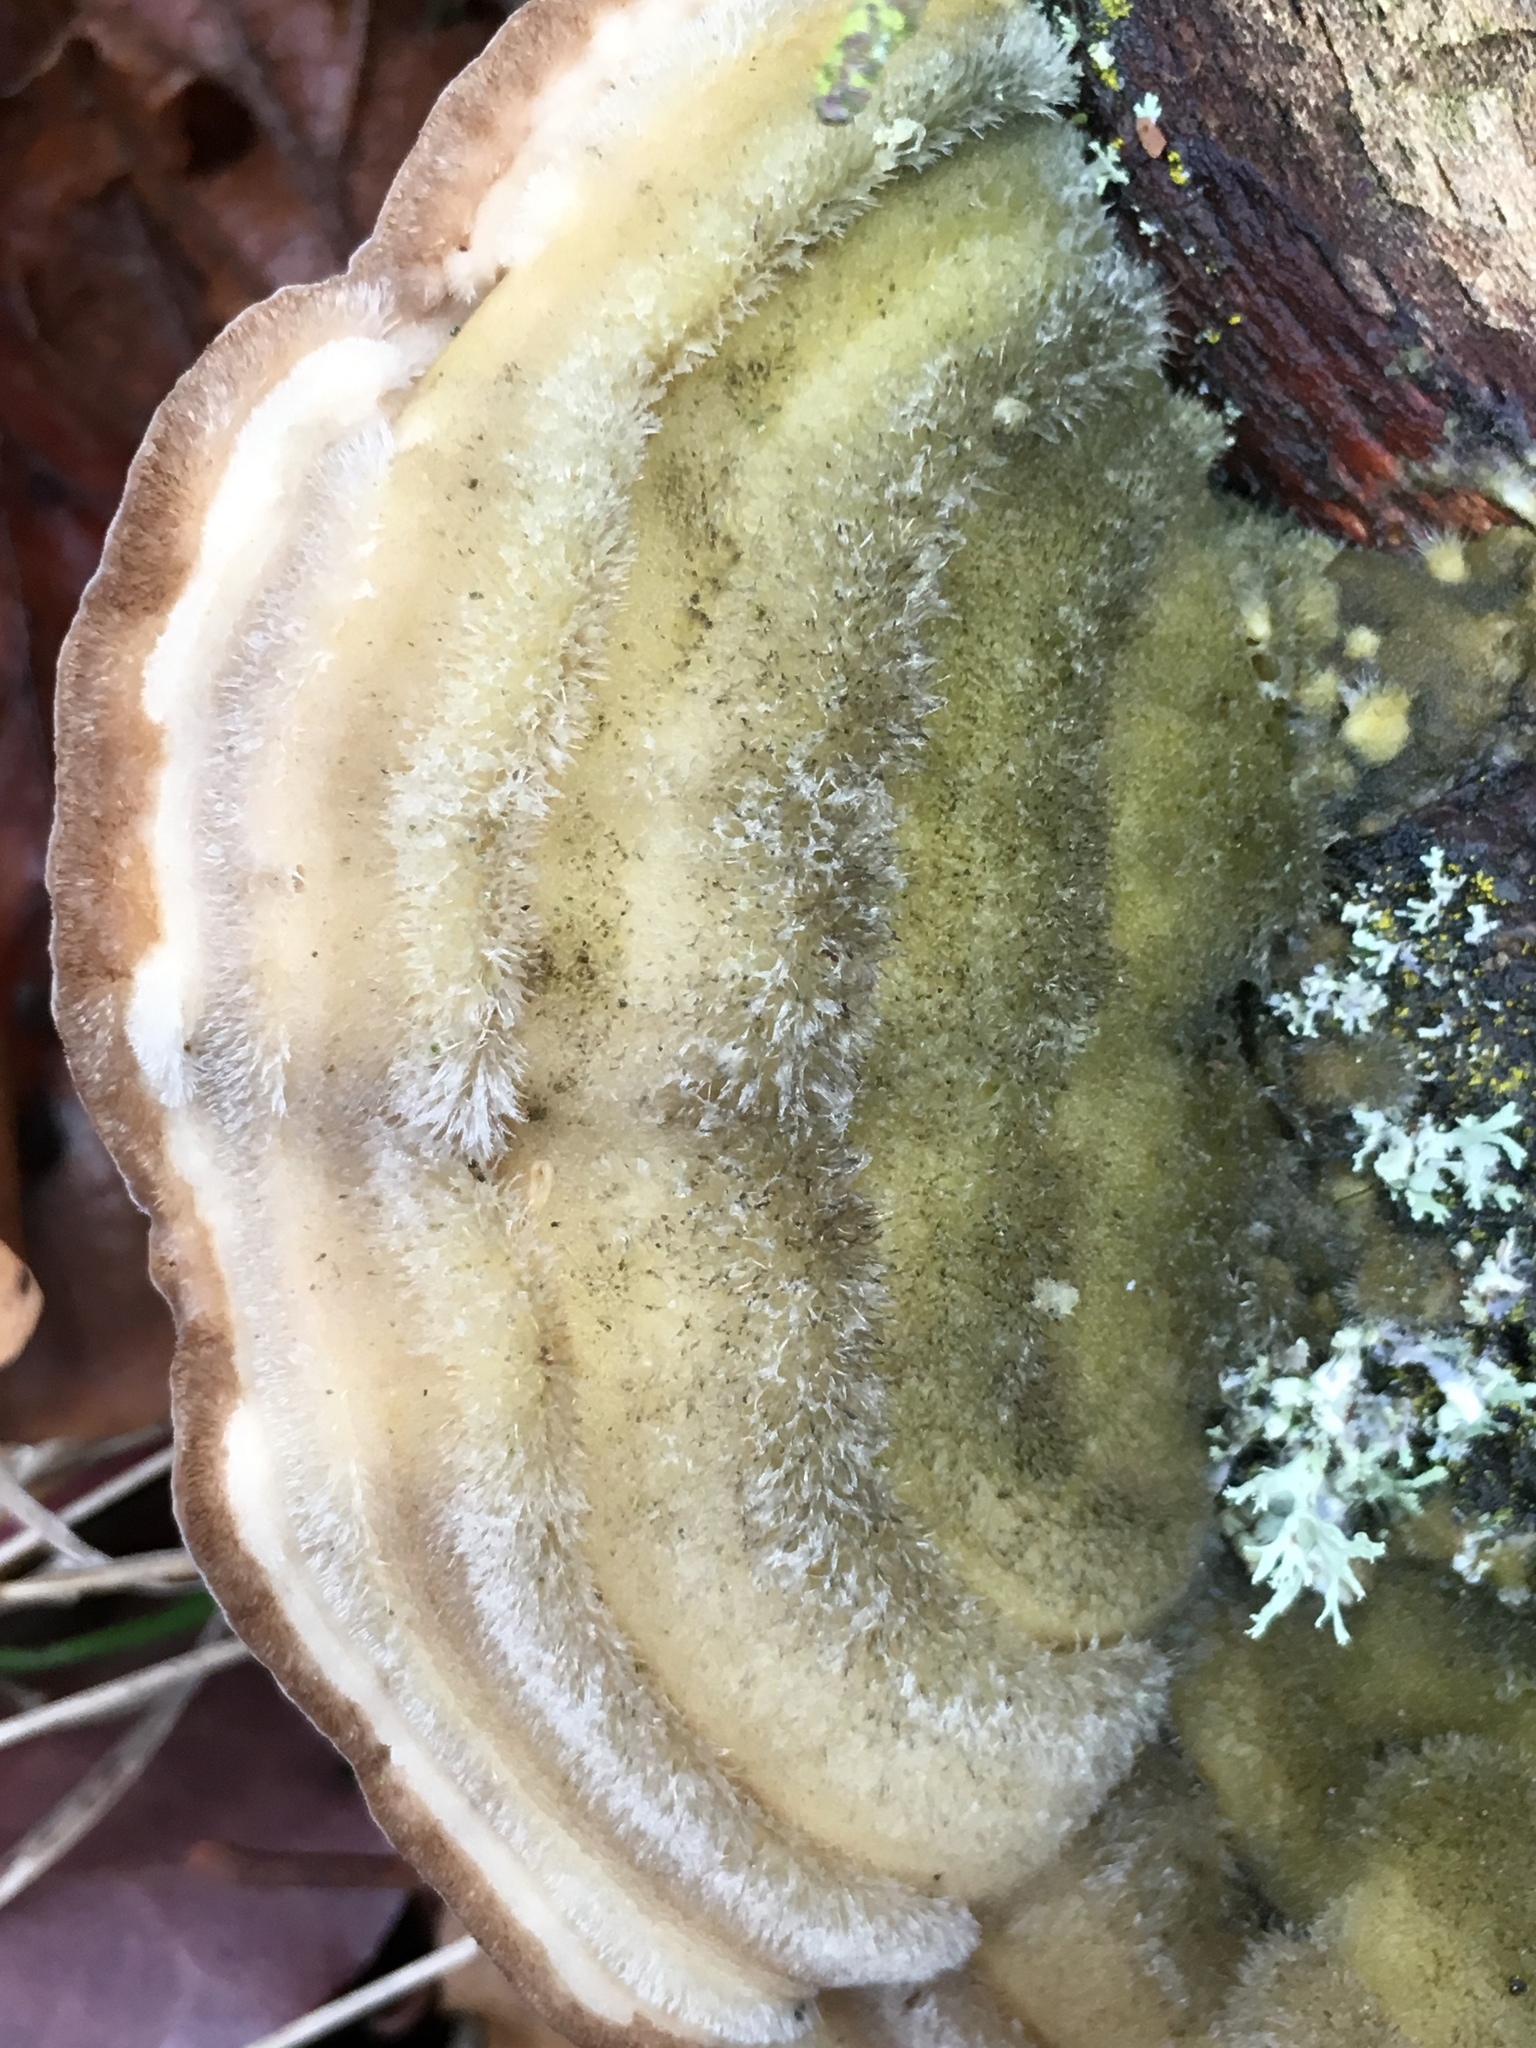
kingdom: Fungi
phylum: Basidiomycota
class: Agaricomycetes
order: Polyporales
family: Polyporaceae
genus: Trametes
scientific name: Trametes hirsuta
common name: Hairy bracket
